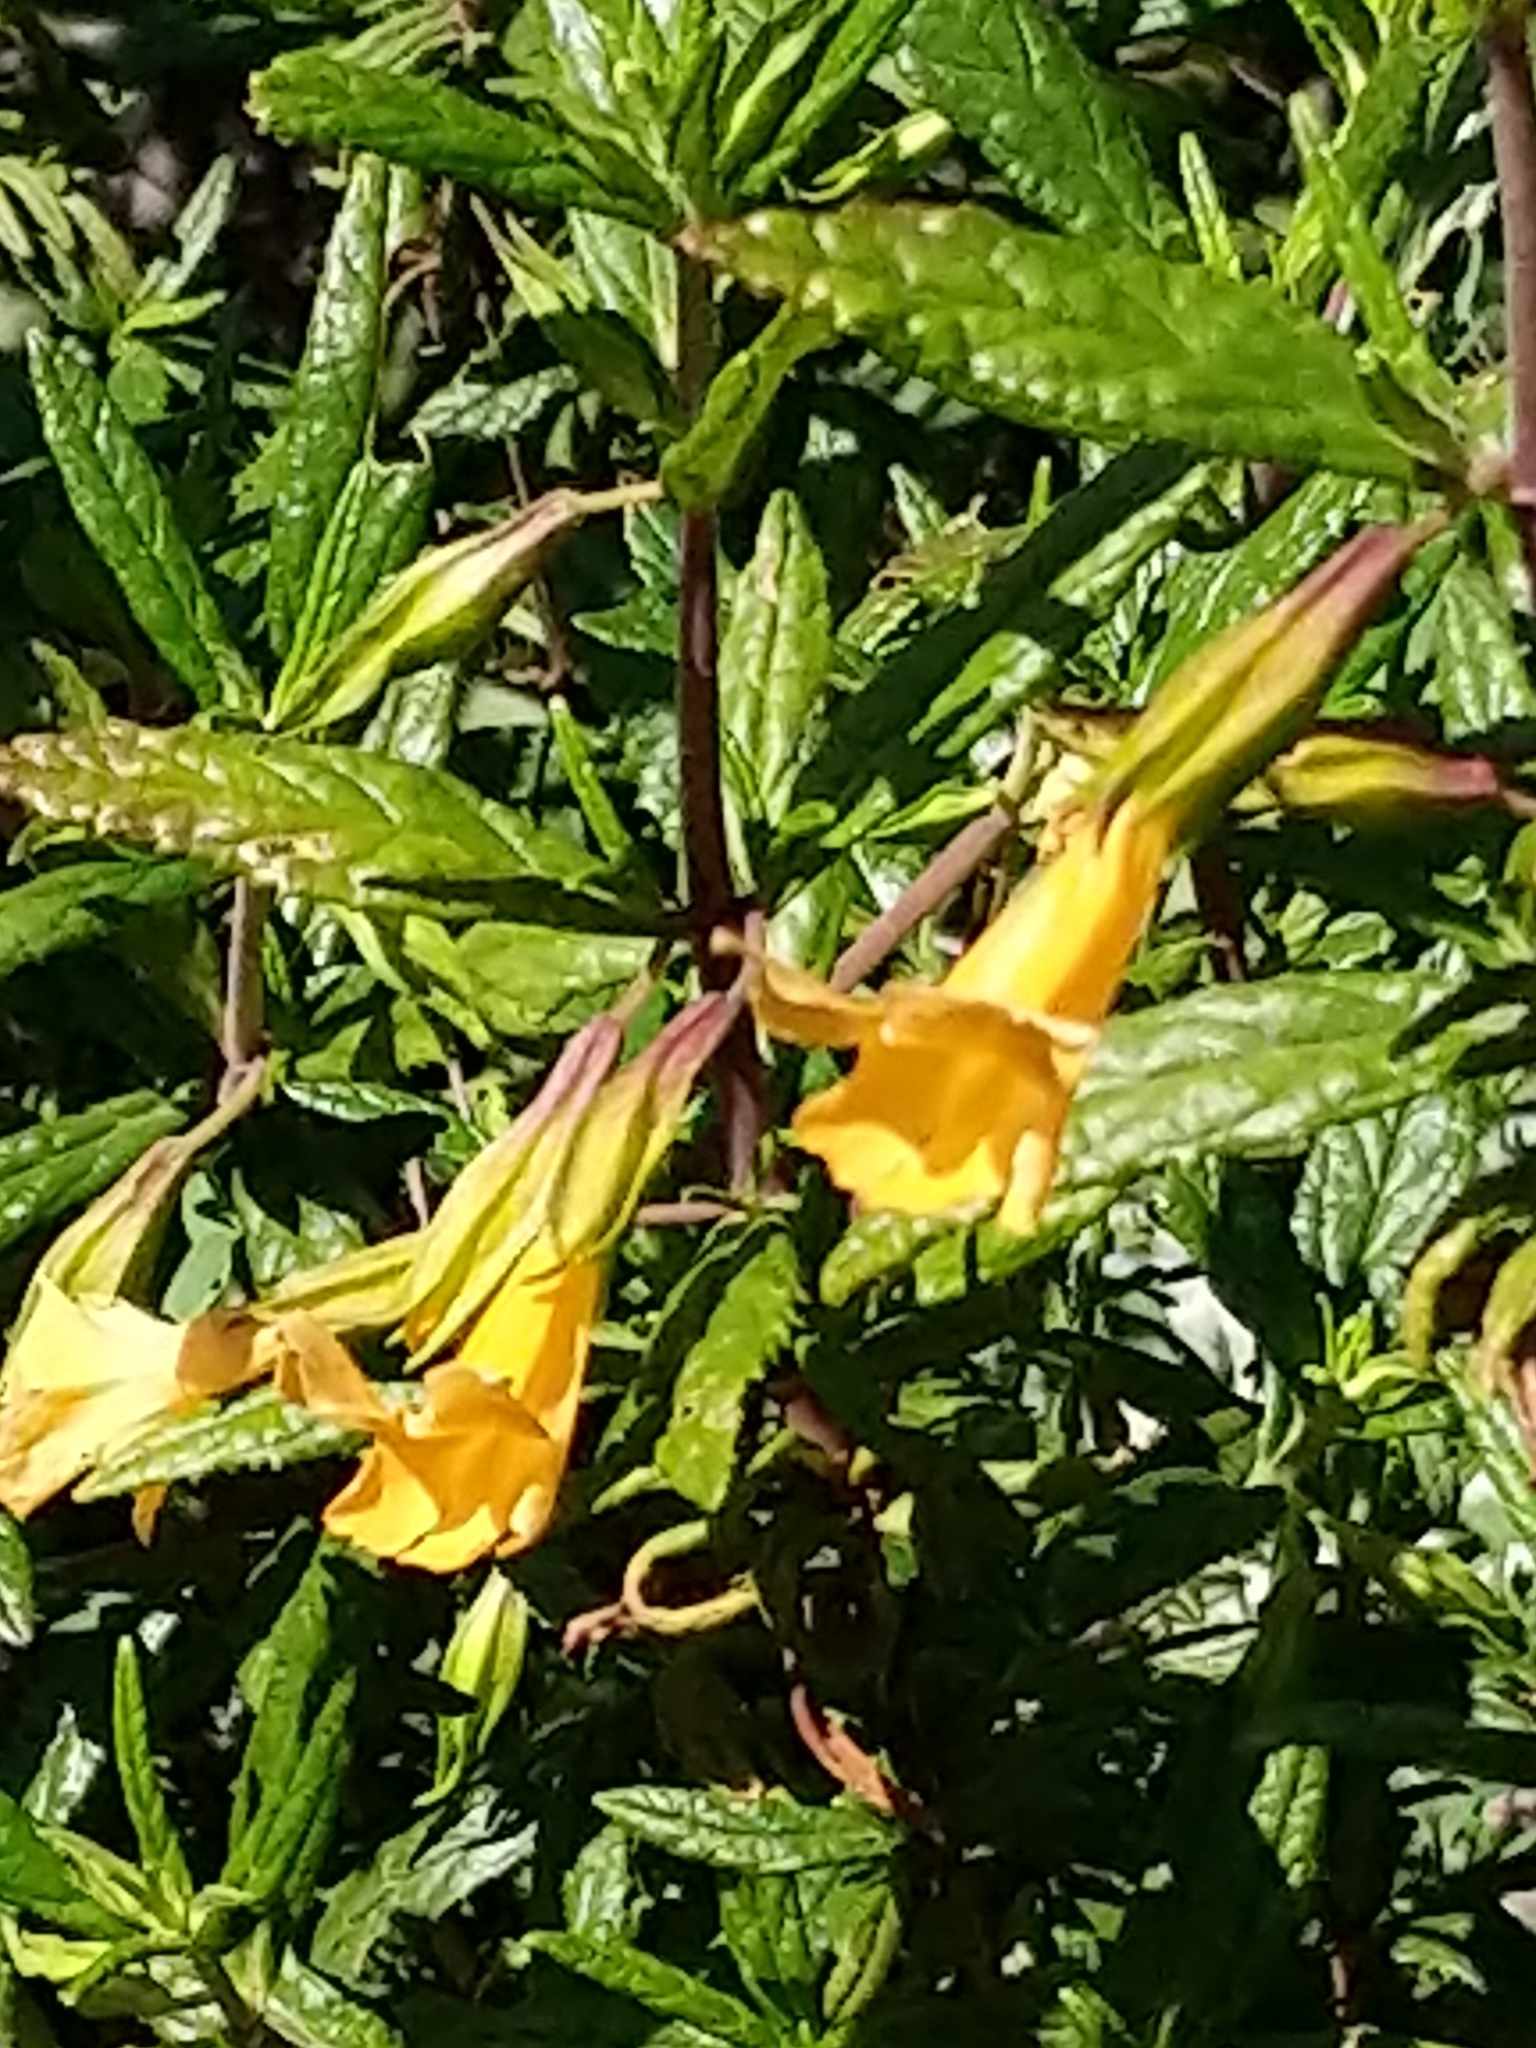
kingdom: Plantae
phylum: Tracheophyta
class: Magnoliopsida
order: Lamiales
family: Phrymaceae
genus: Diplacus
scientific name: Diplacus aurantiacus
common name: Bush monkey-flower
